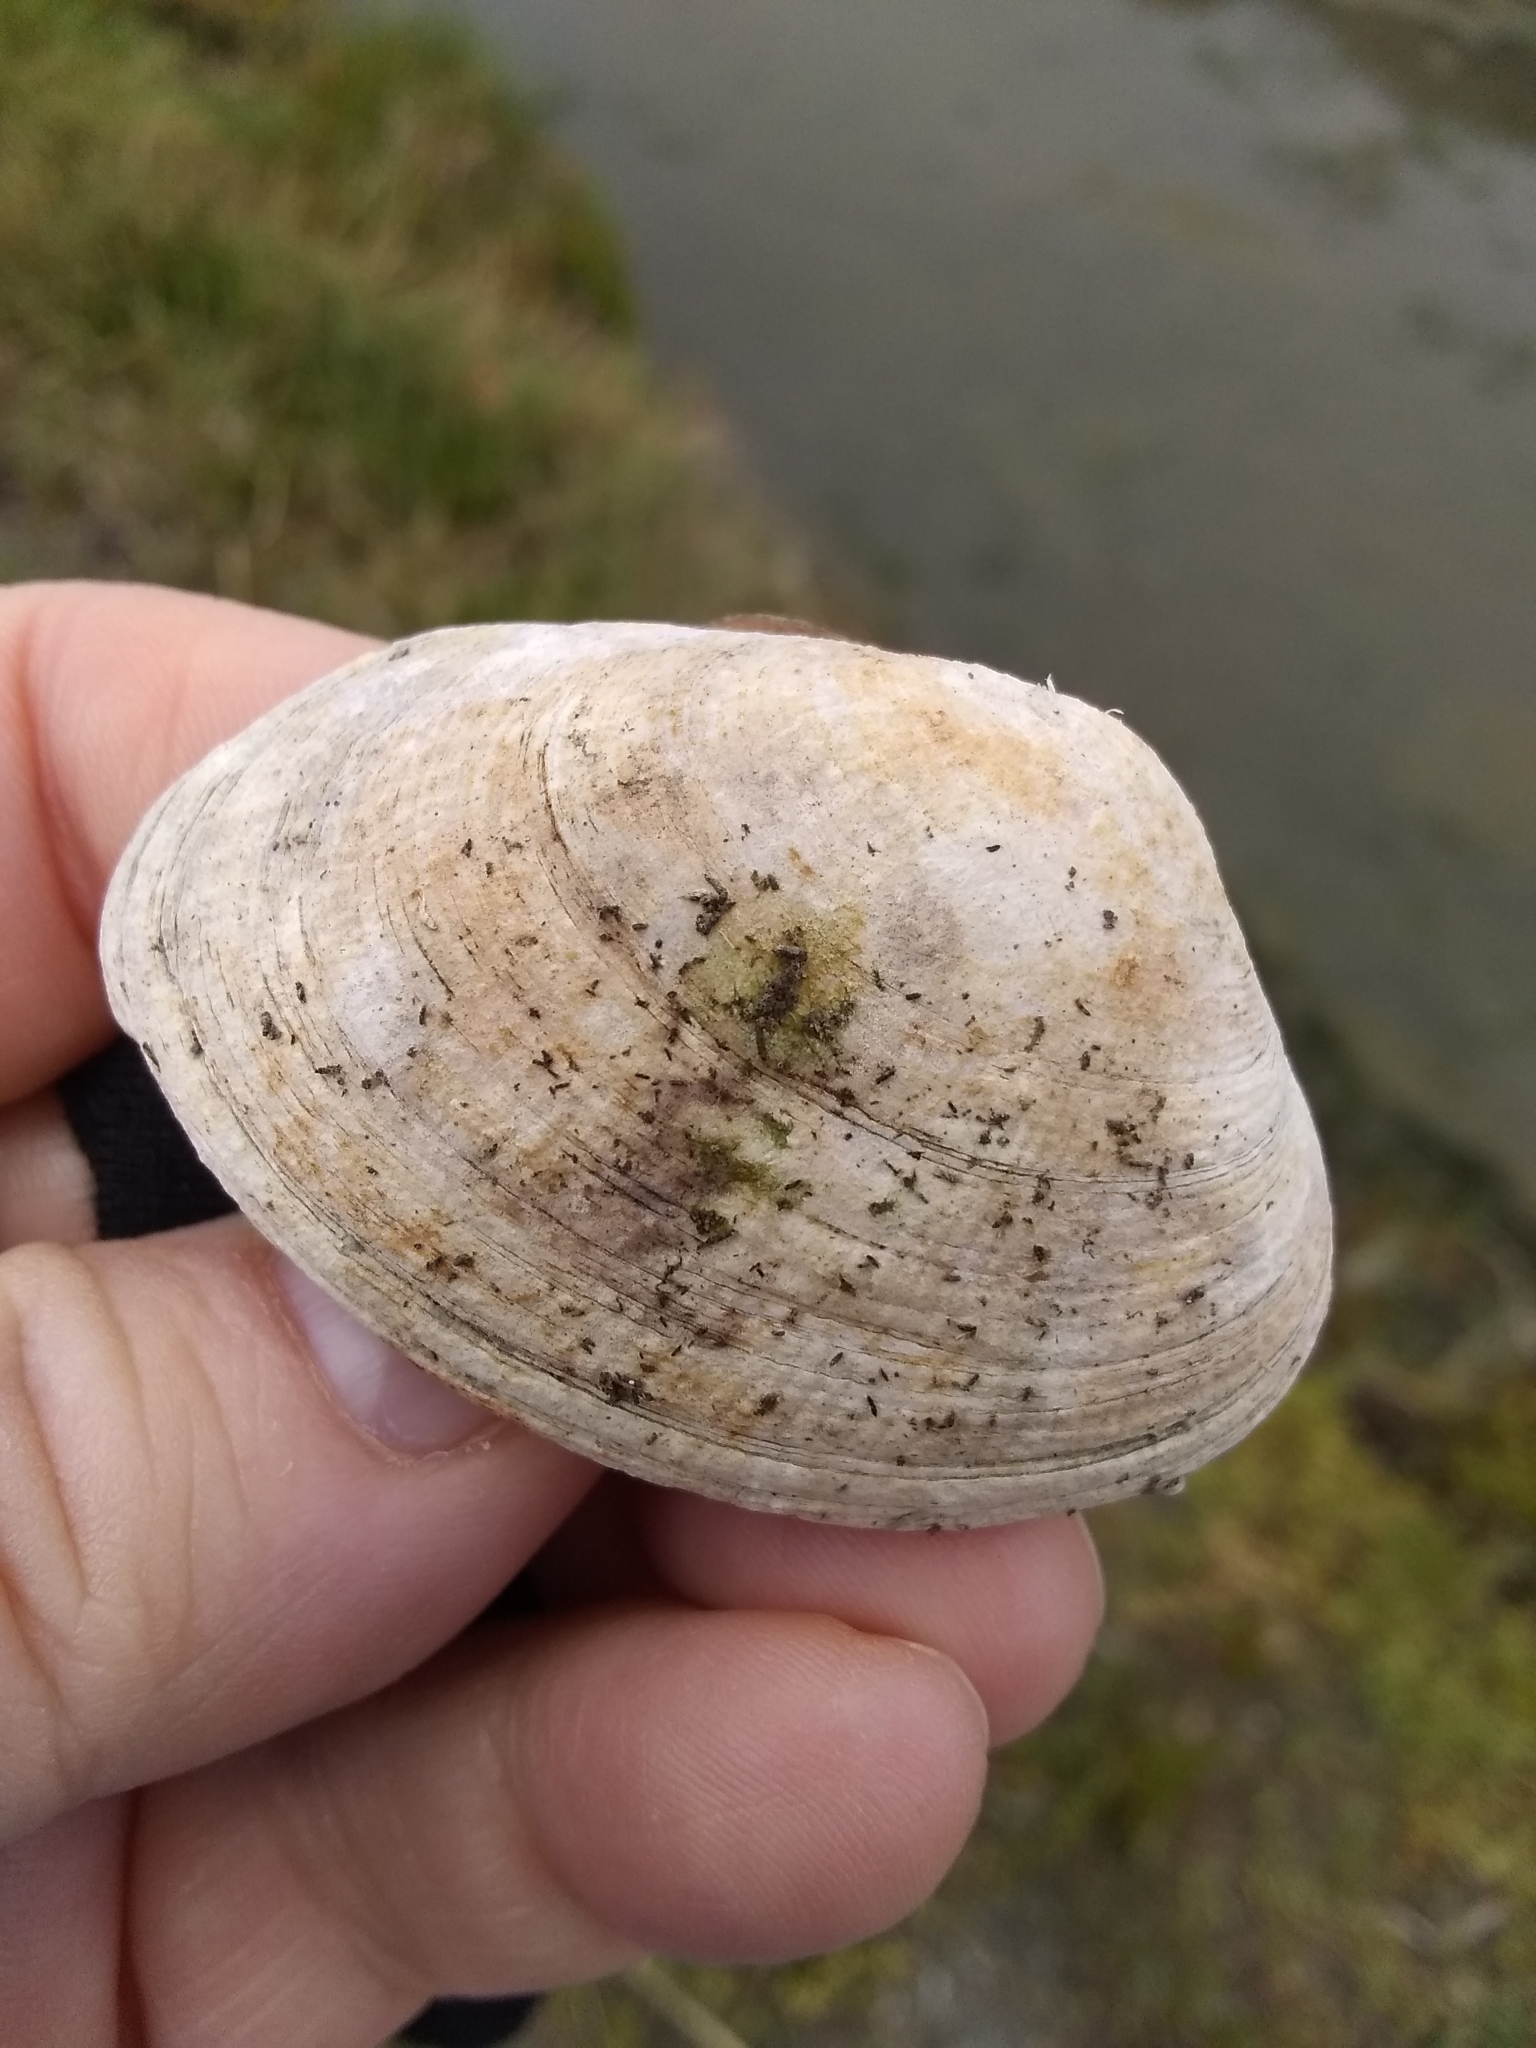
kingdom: Animalia
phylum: Mollusca
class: Bivalvia
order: Venerida
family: Veneridae
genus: Ruditapes
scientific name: Ruditapes philippinarum
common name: Manila clam
